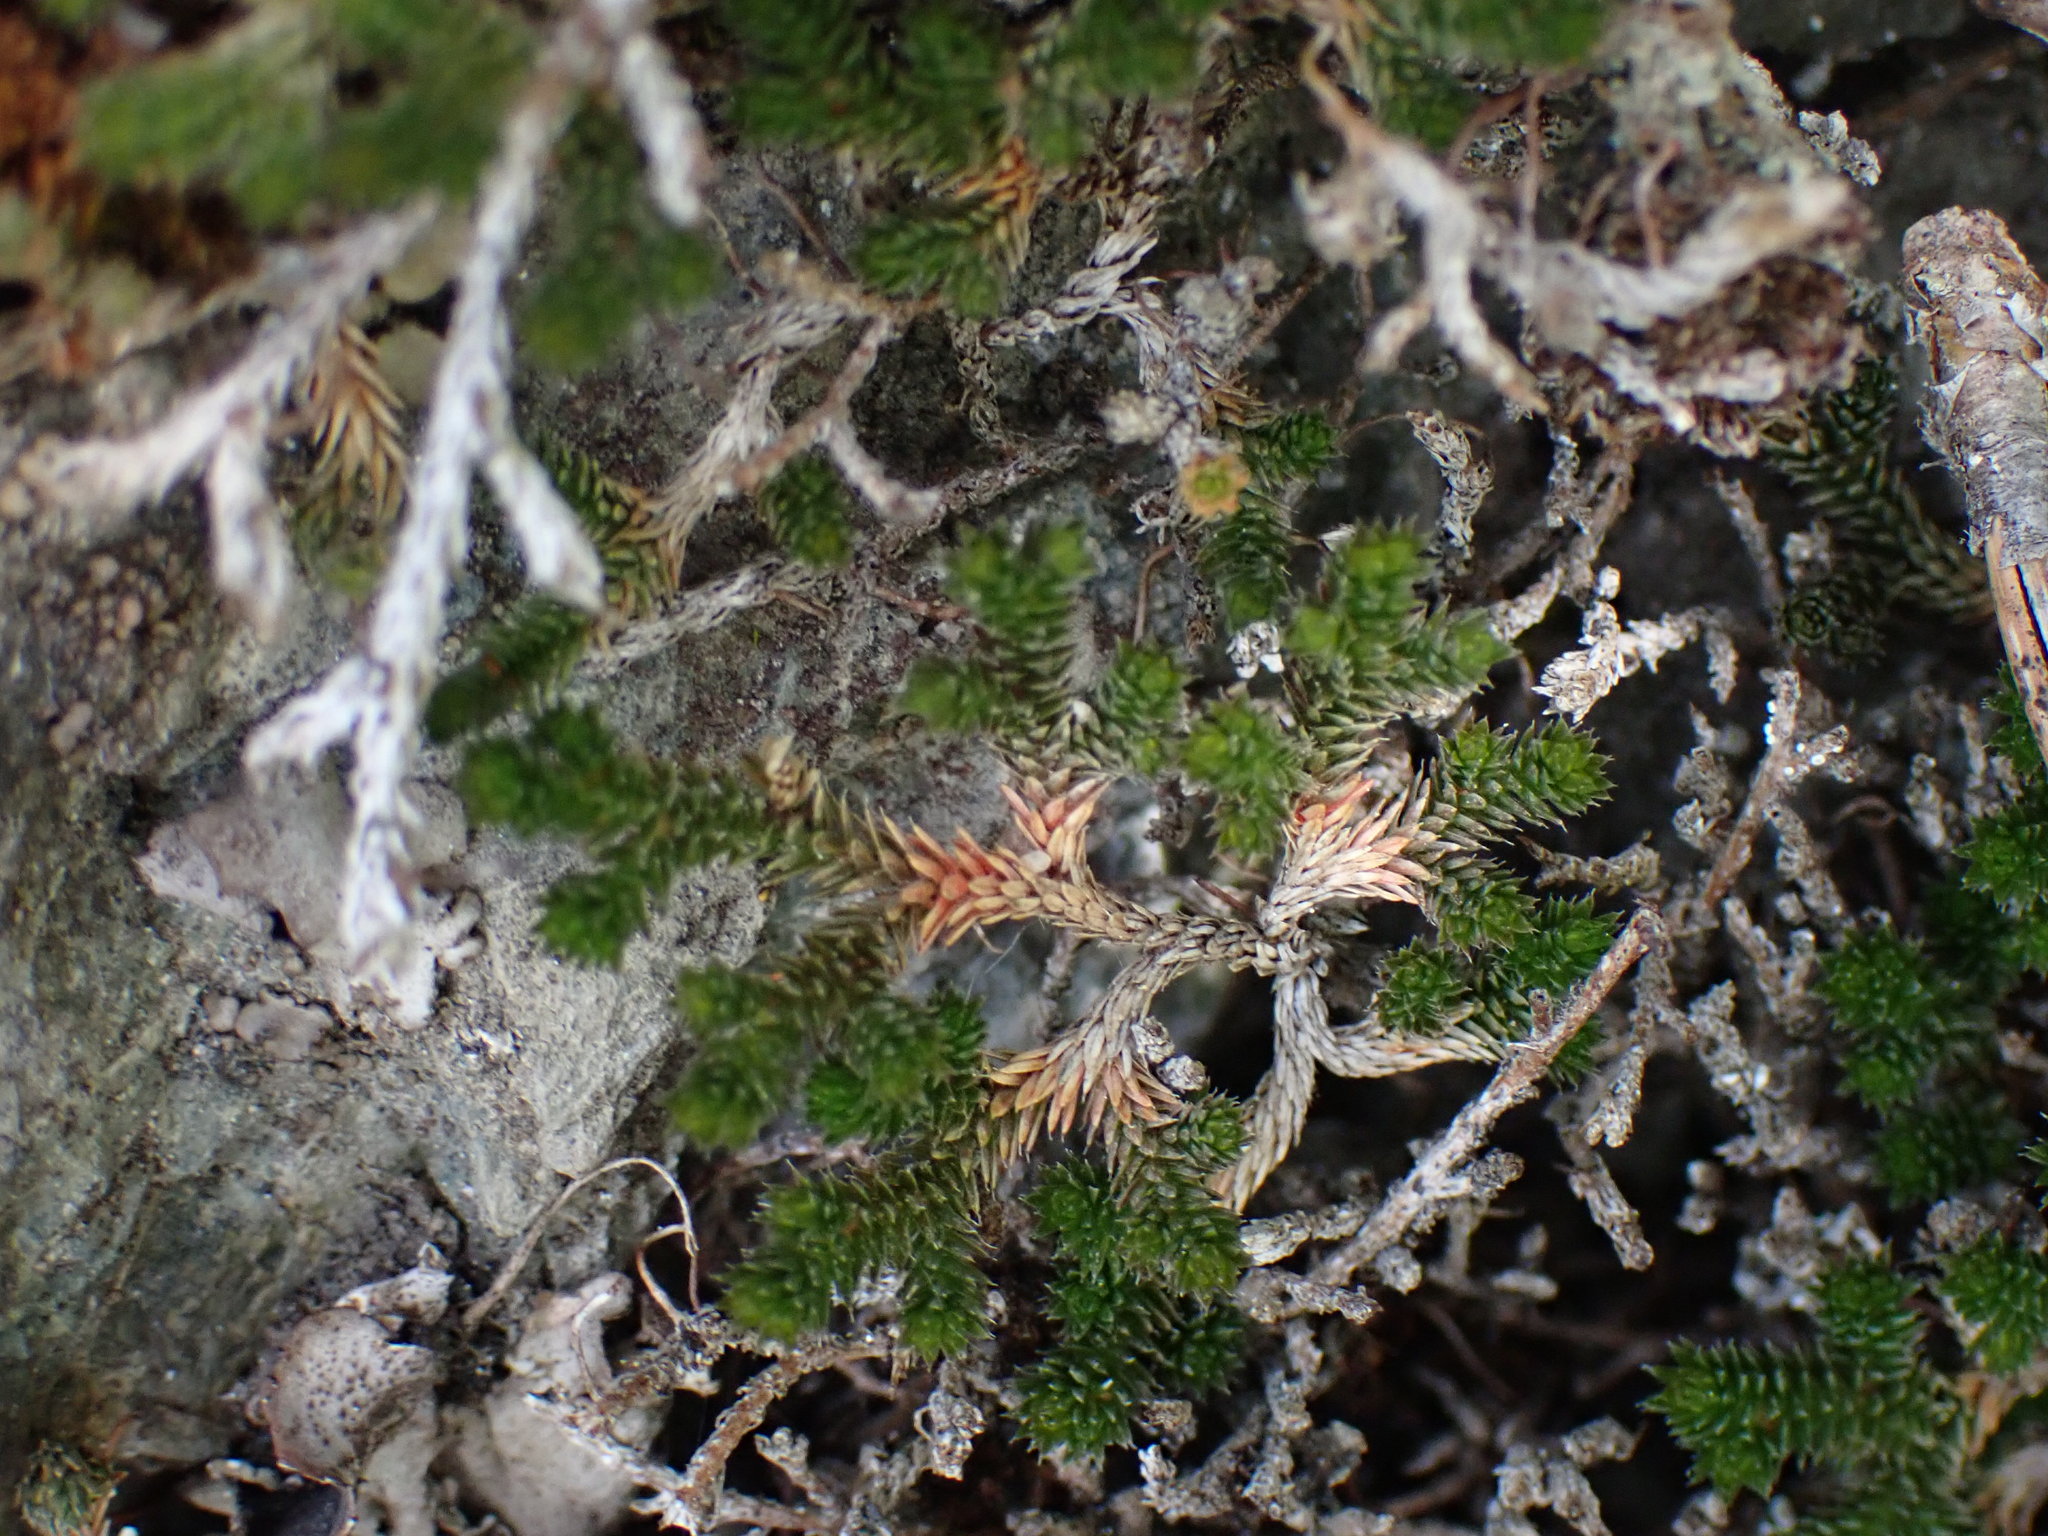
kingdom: Plantae
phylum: Tracheophyta
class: Lycopodiopsida
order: Selaginellales
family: Selaginellaceae
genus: Selaginella
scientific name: Selaginella wallacei
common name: Wallace's selaginella
